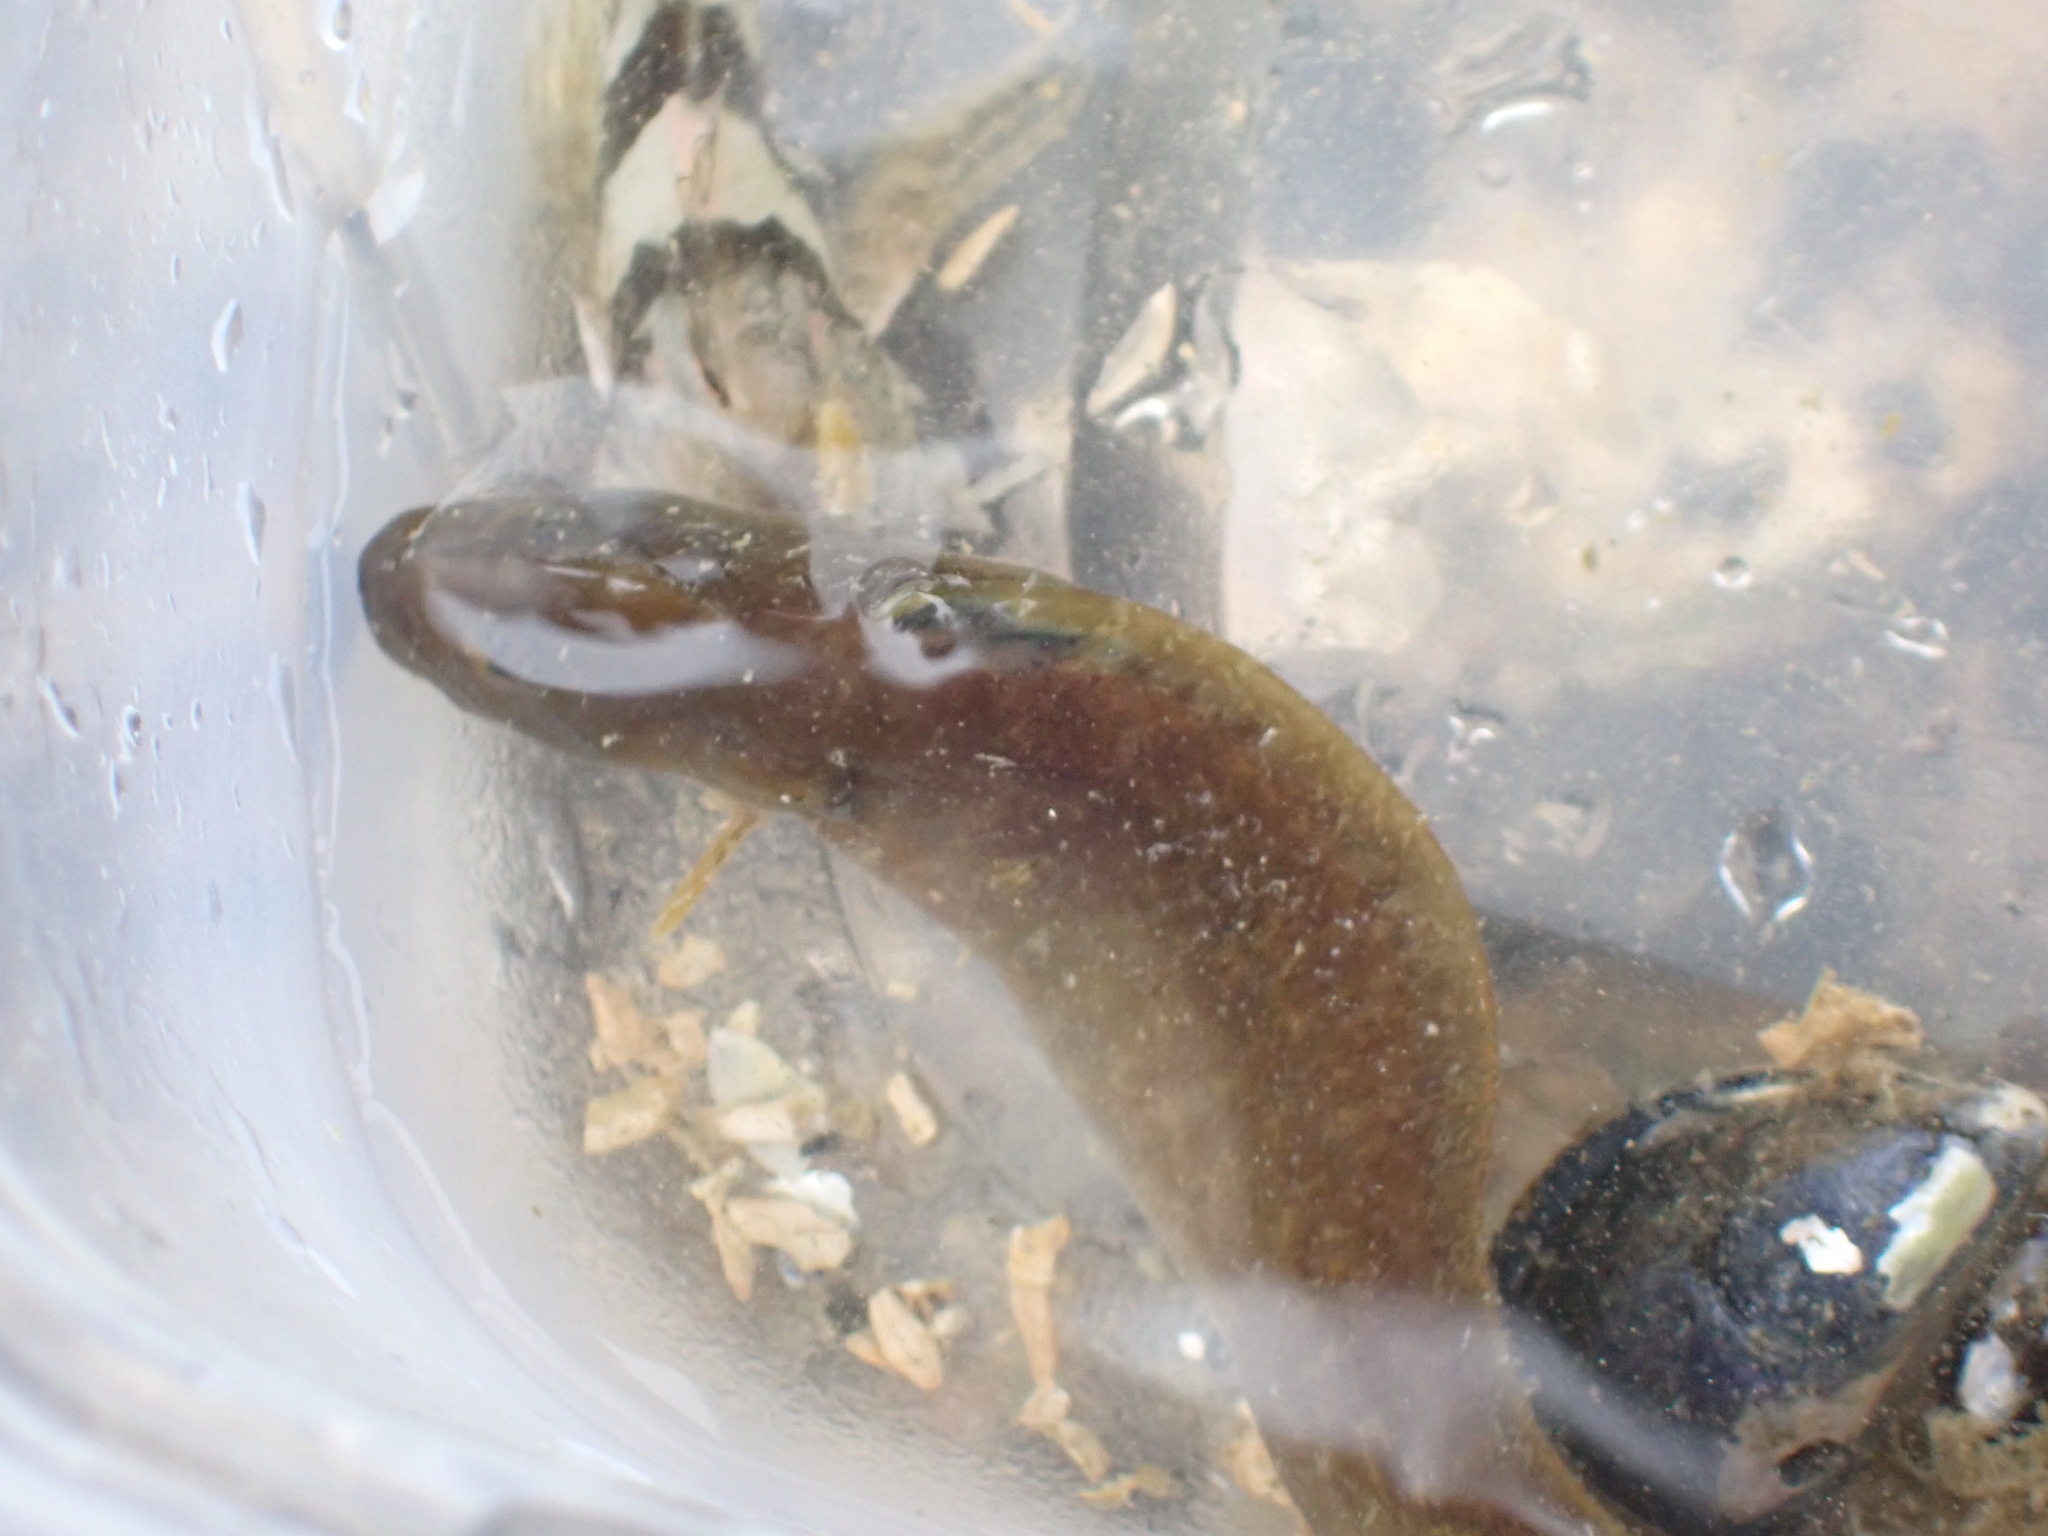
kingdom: Animalia
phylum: Chordata
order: Perciformes
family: Stichaeidae
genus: Anoplarchus
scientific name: Anoplarchus purpurescens
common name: High cockscomb
